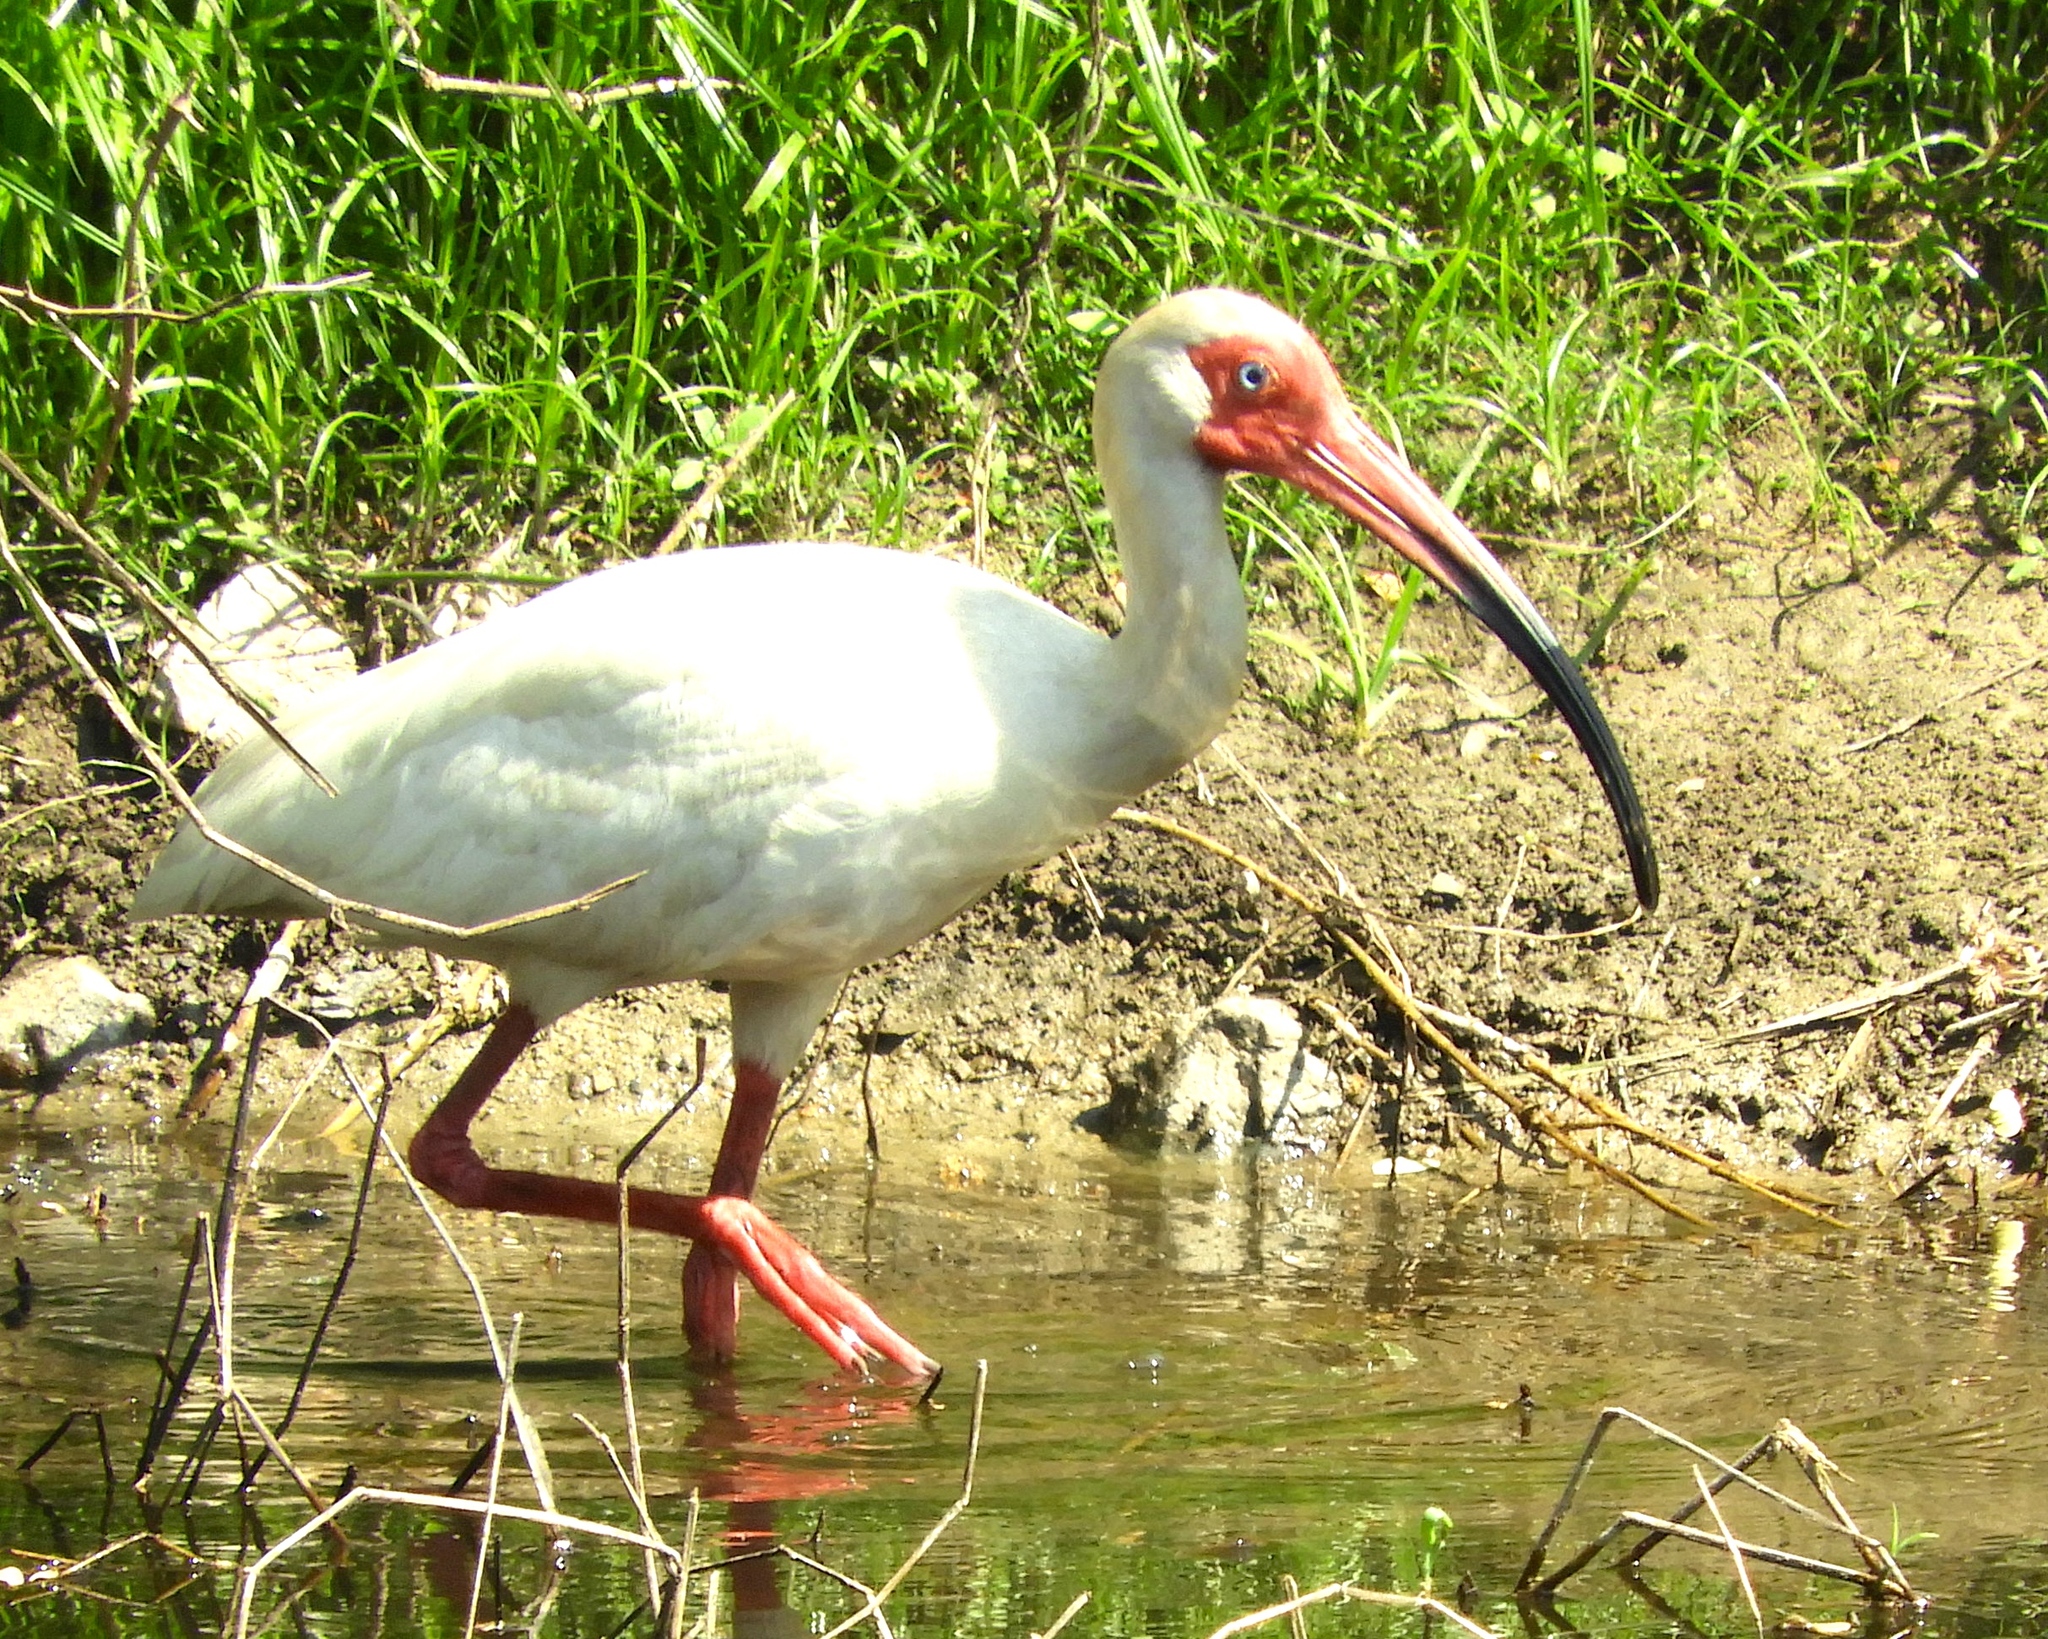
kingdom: Animalia
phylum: Chordata
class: Aves
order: Pelecaniformes
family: Threskiornithidae
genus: Eudocimus
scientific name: Eudocimus albus
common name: White ibis
